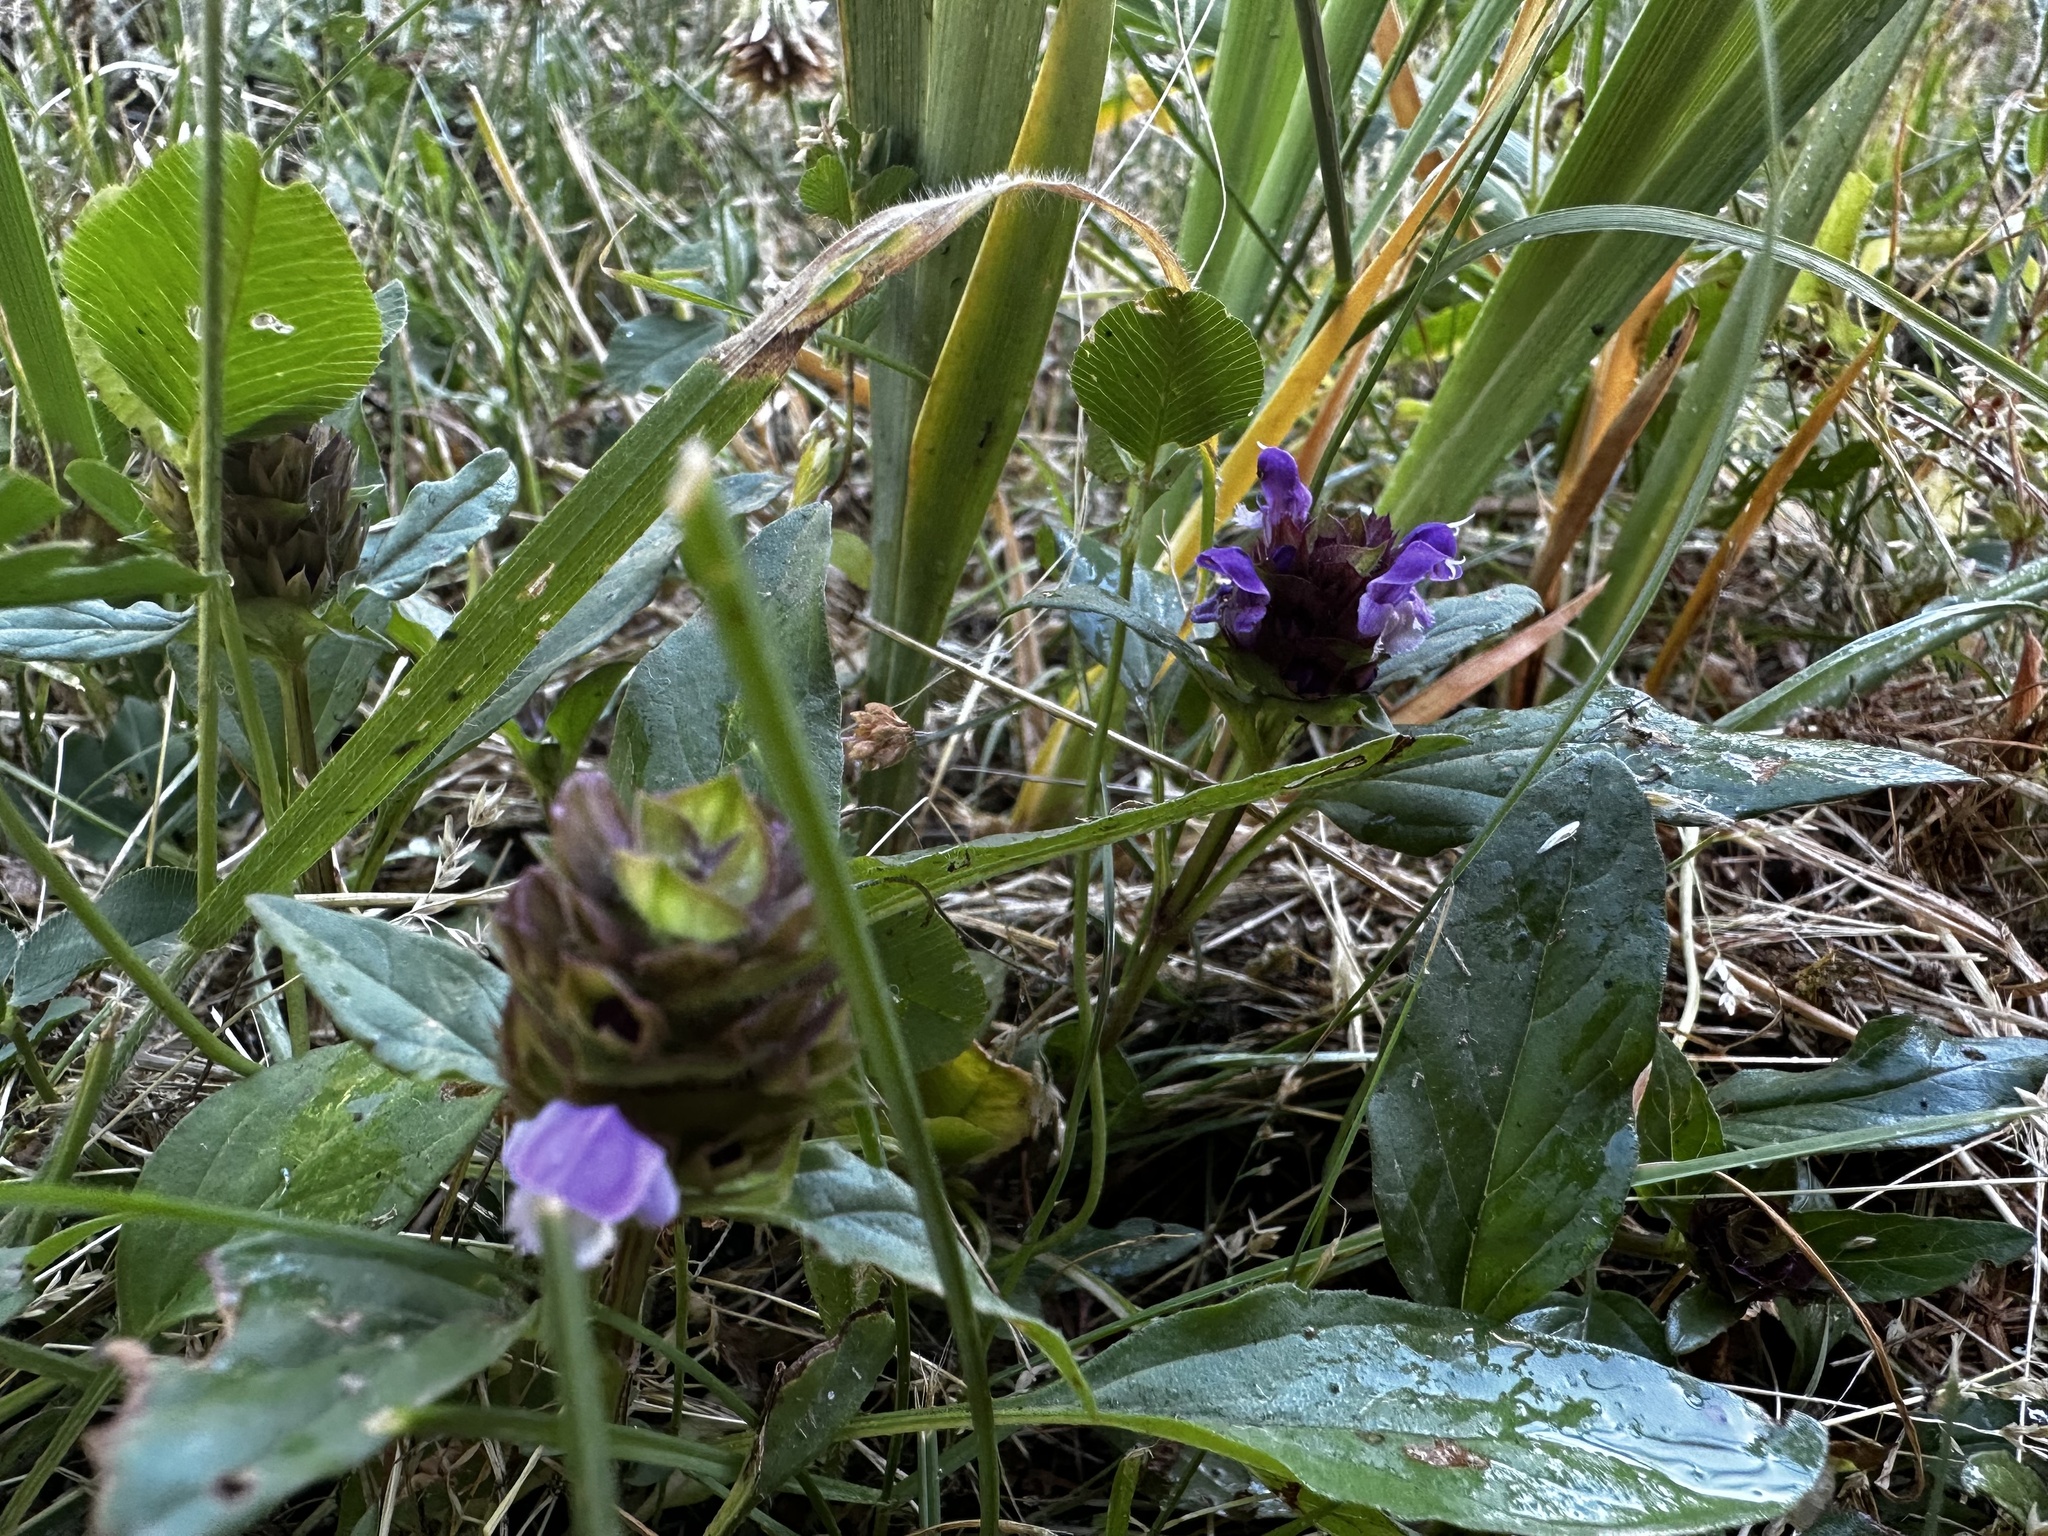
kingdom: Plantae
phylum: Tracheophyta
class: Magnoliopsida
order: Lamiales
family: Lamiaceae
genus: Prunella
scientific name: Prunella vulgaris
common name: Heal-all
